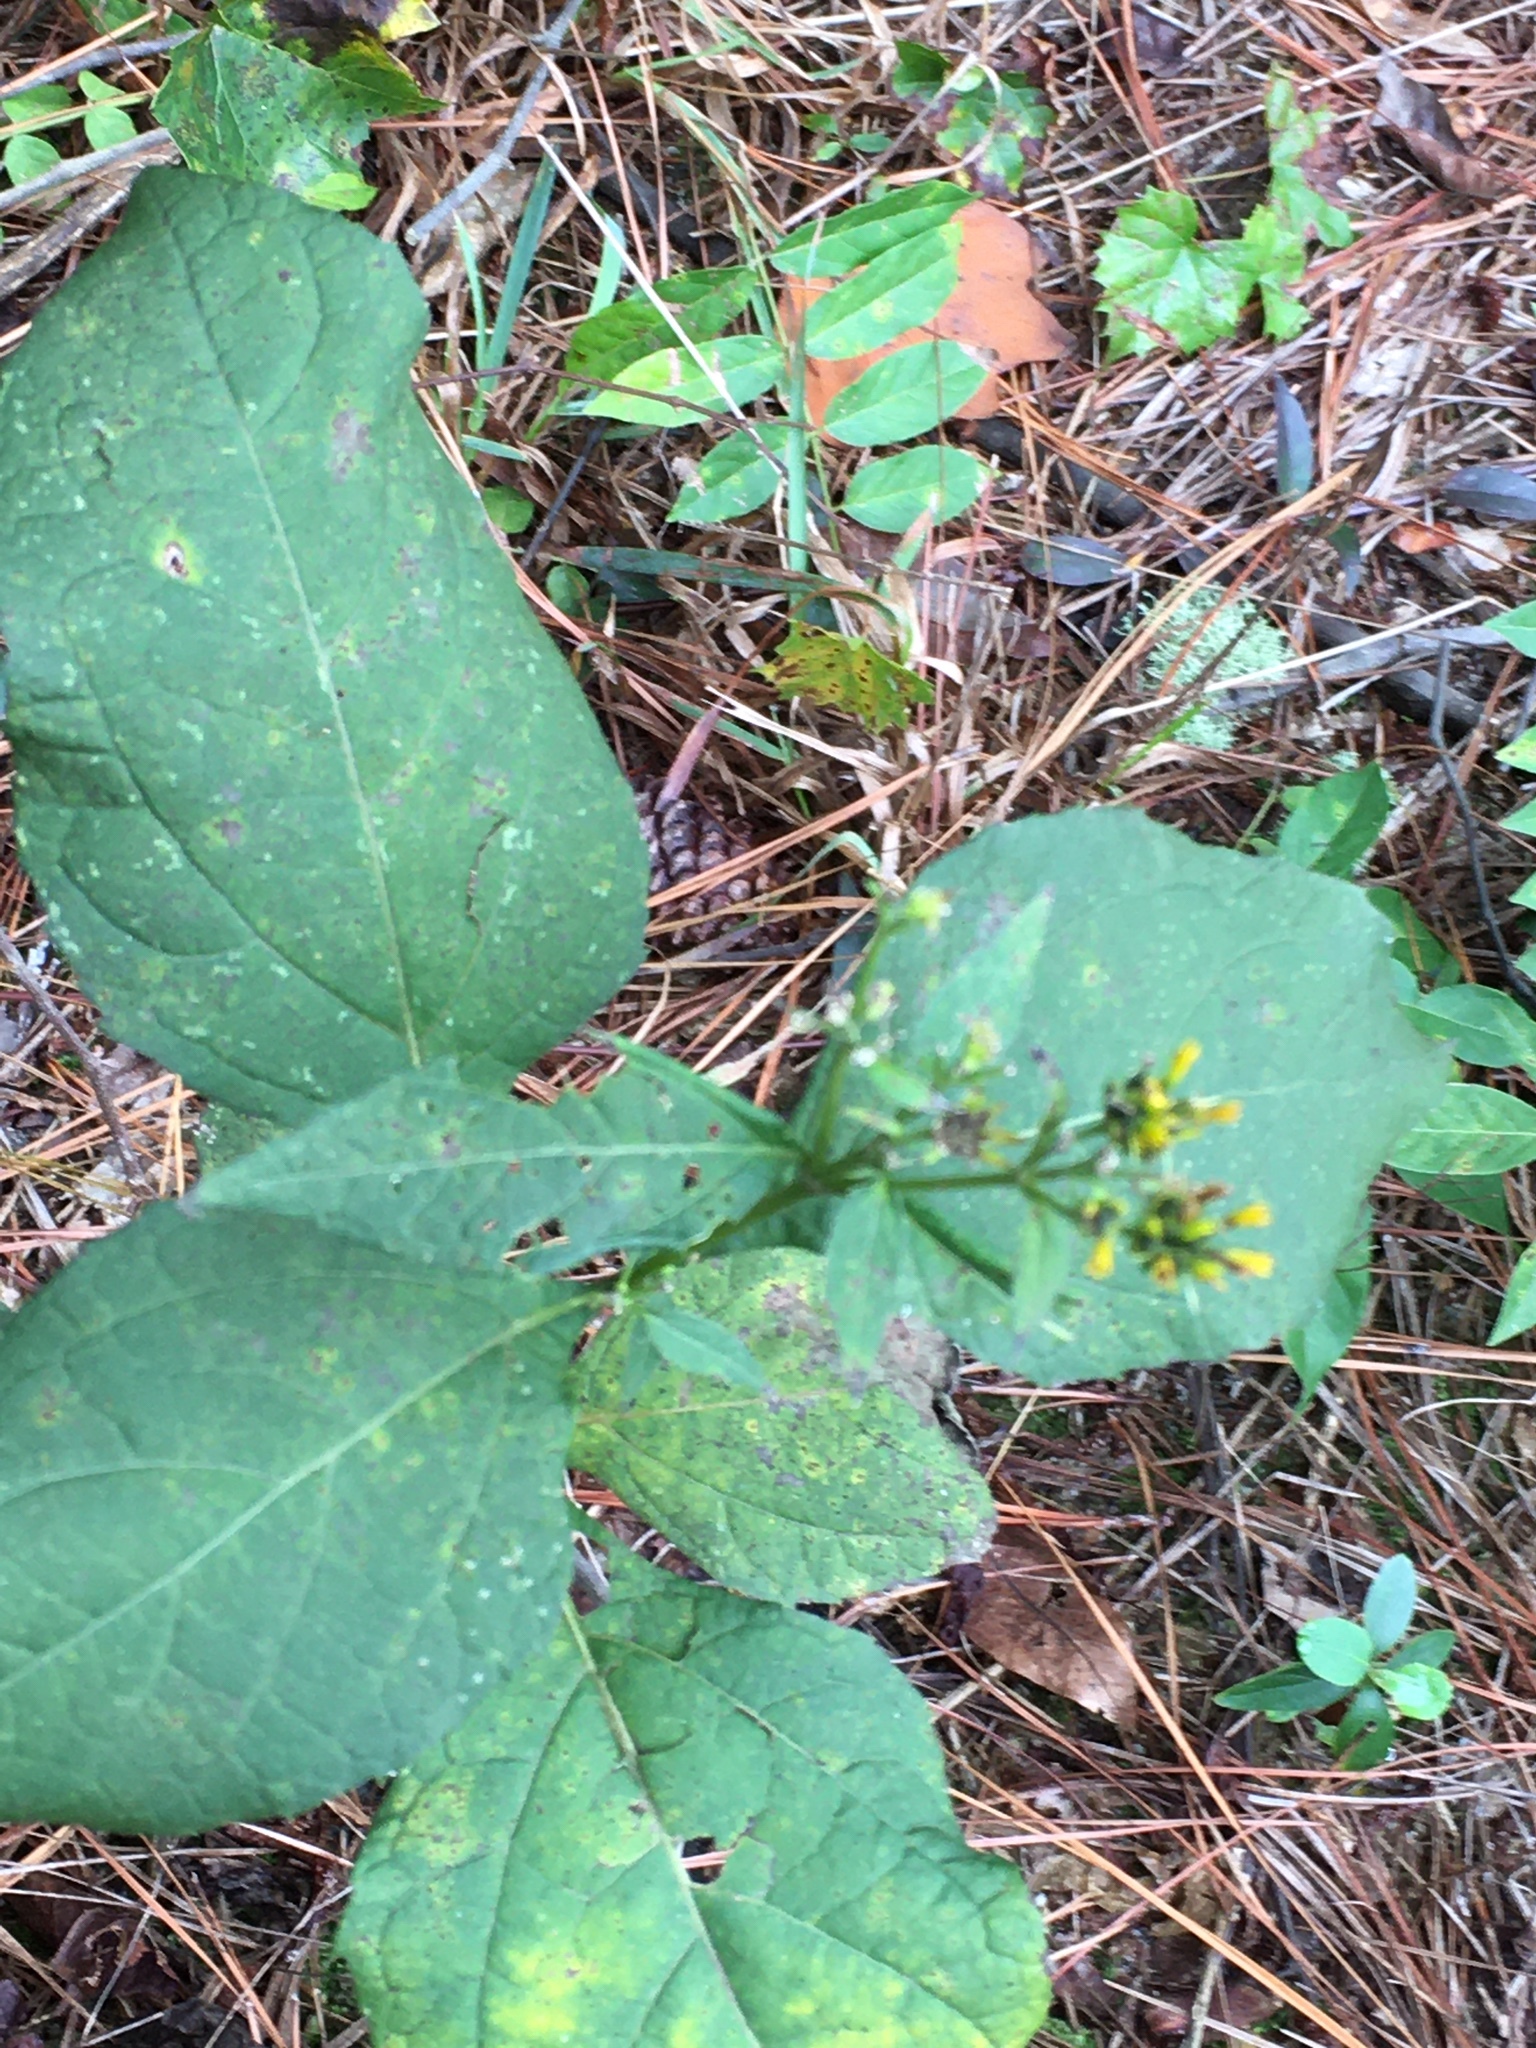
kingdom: Plantae
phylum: Tracheophyta
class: Magnoliopsida
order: Asterales
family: Asteraceae
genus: Verbesina
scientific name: Verbesina occidentalis
